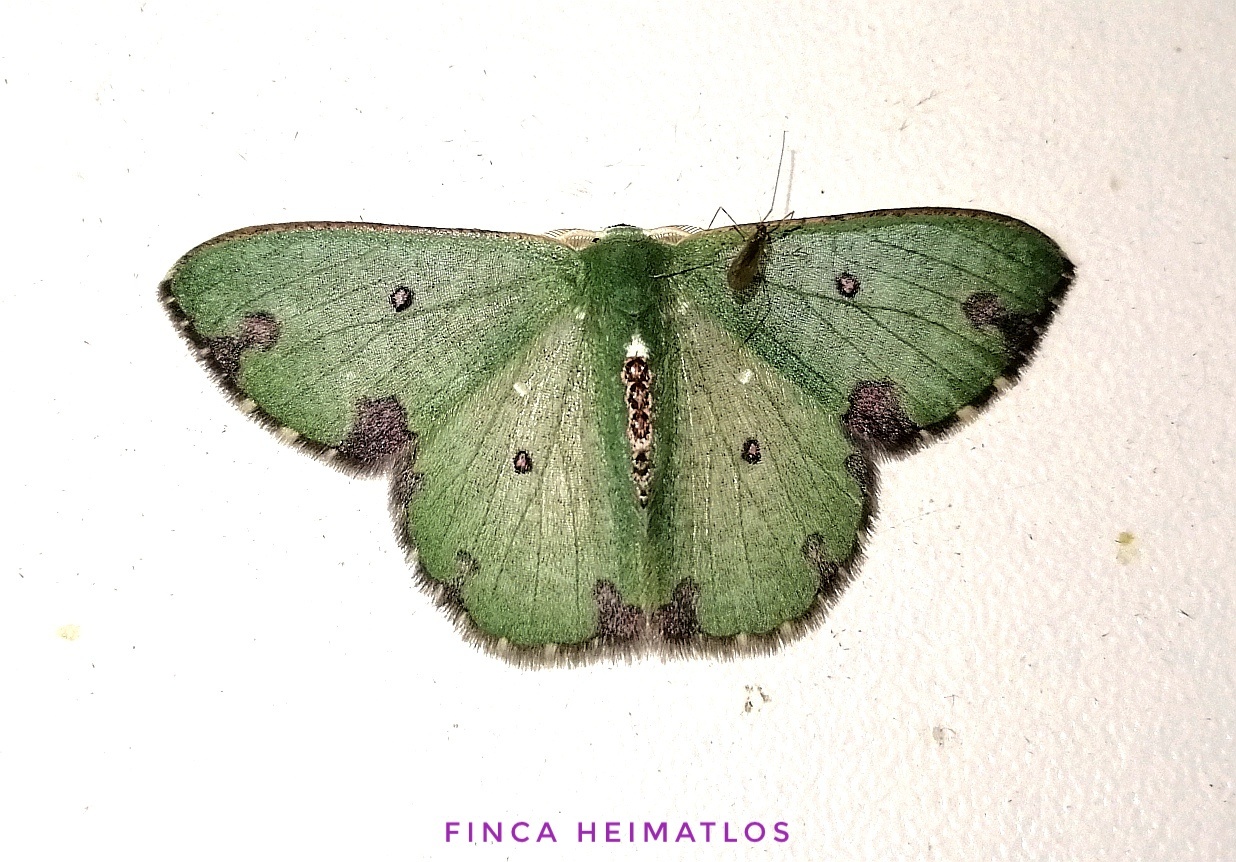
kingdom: Animalia
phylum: Arthropoda
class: Insecta
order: Lepidoptera
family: Geometridae
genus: Oospila
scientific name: Oospila hyalina
